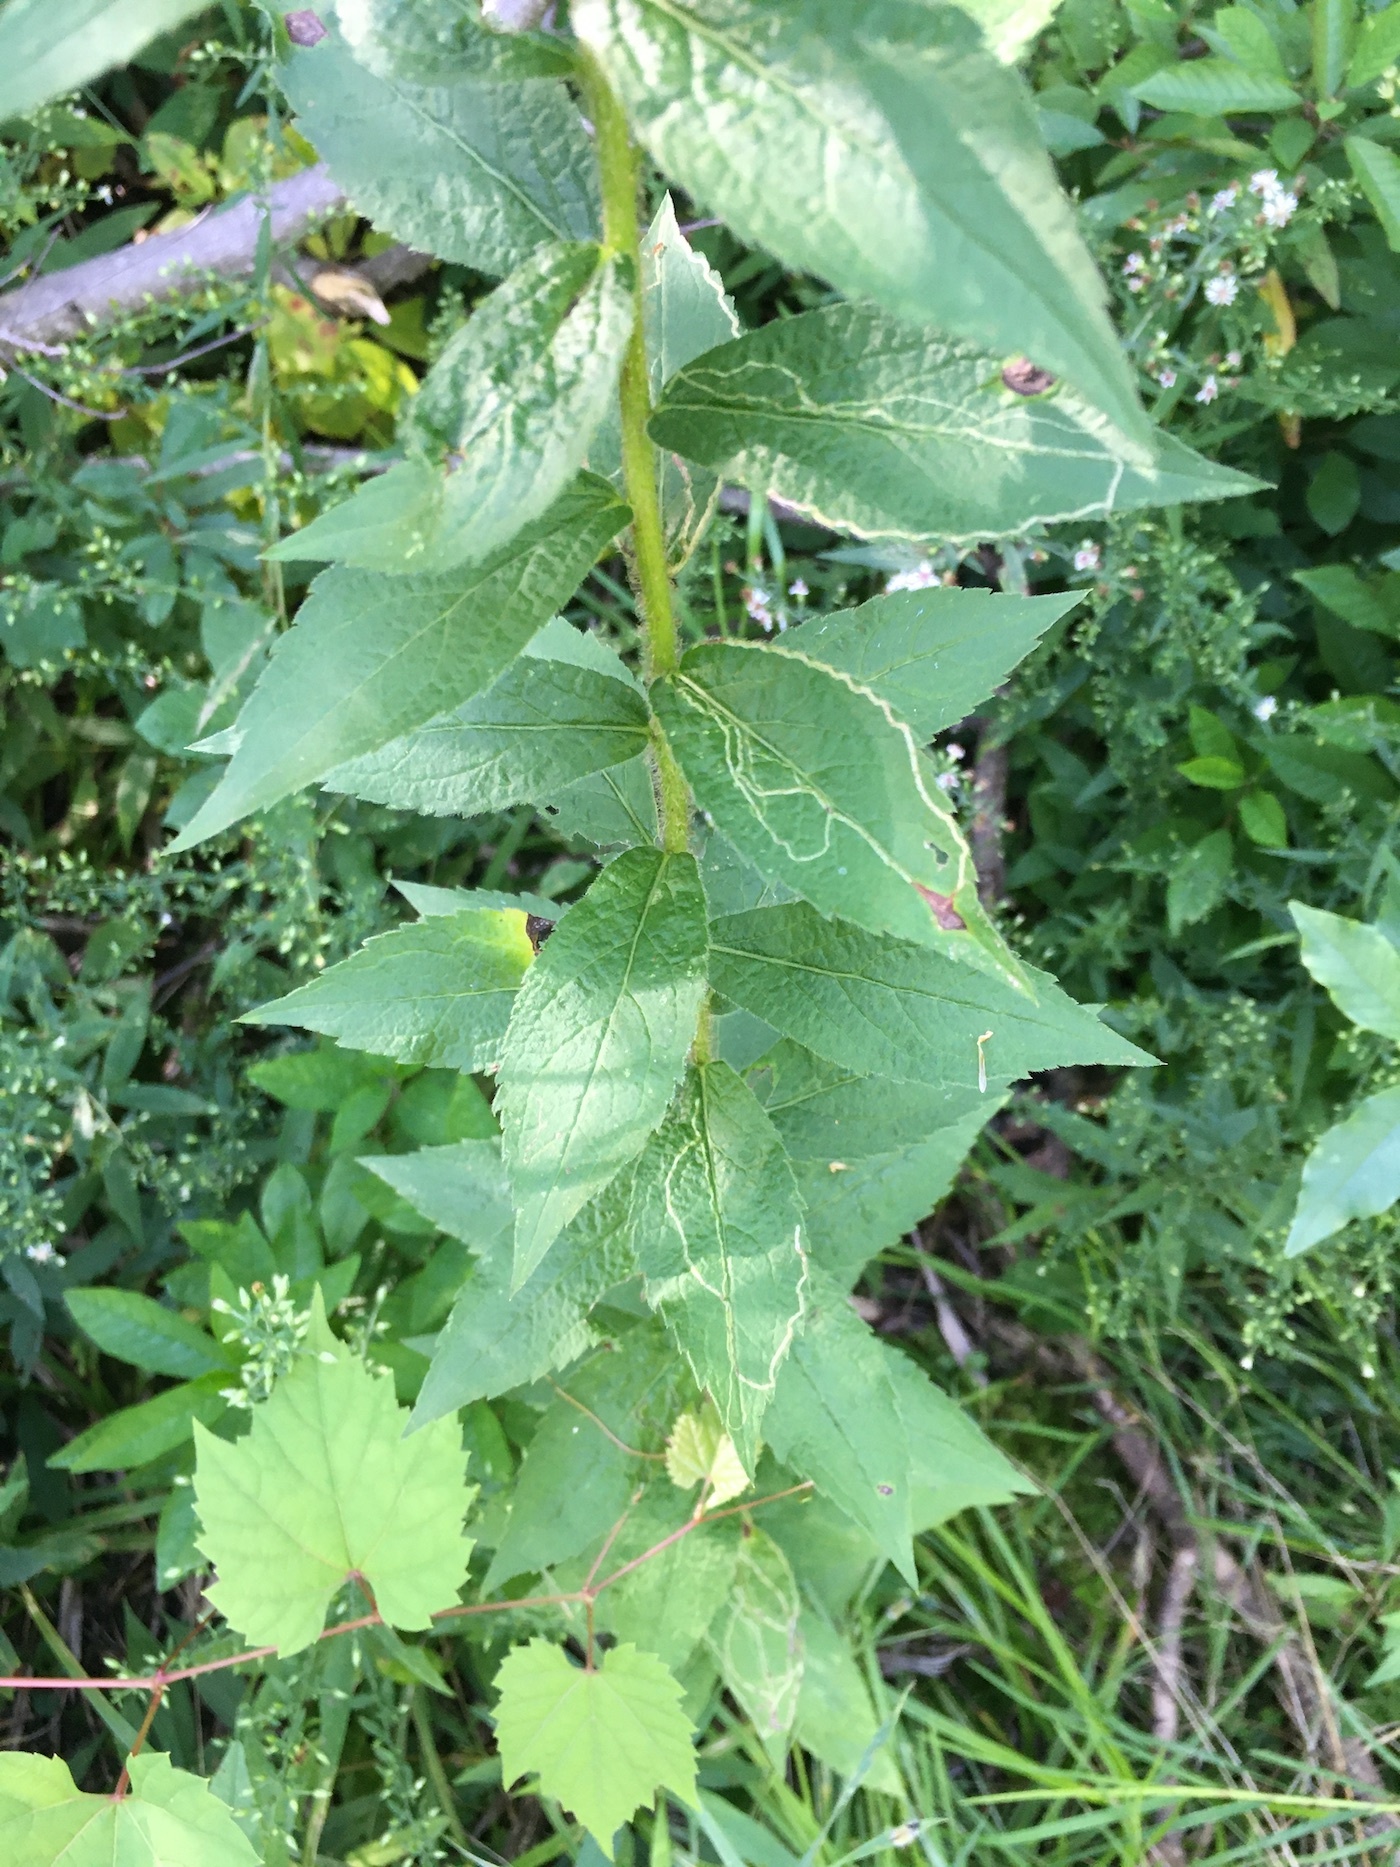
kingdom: Plantae
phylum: Tracheophyta
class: Magnoliopsida
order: Asterales
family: Asteraceae
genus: Solidago
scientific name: Solidago rugosa
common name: Rough-stemmed goldenrod
